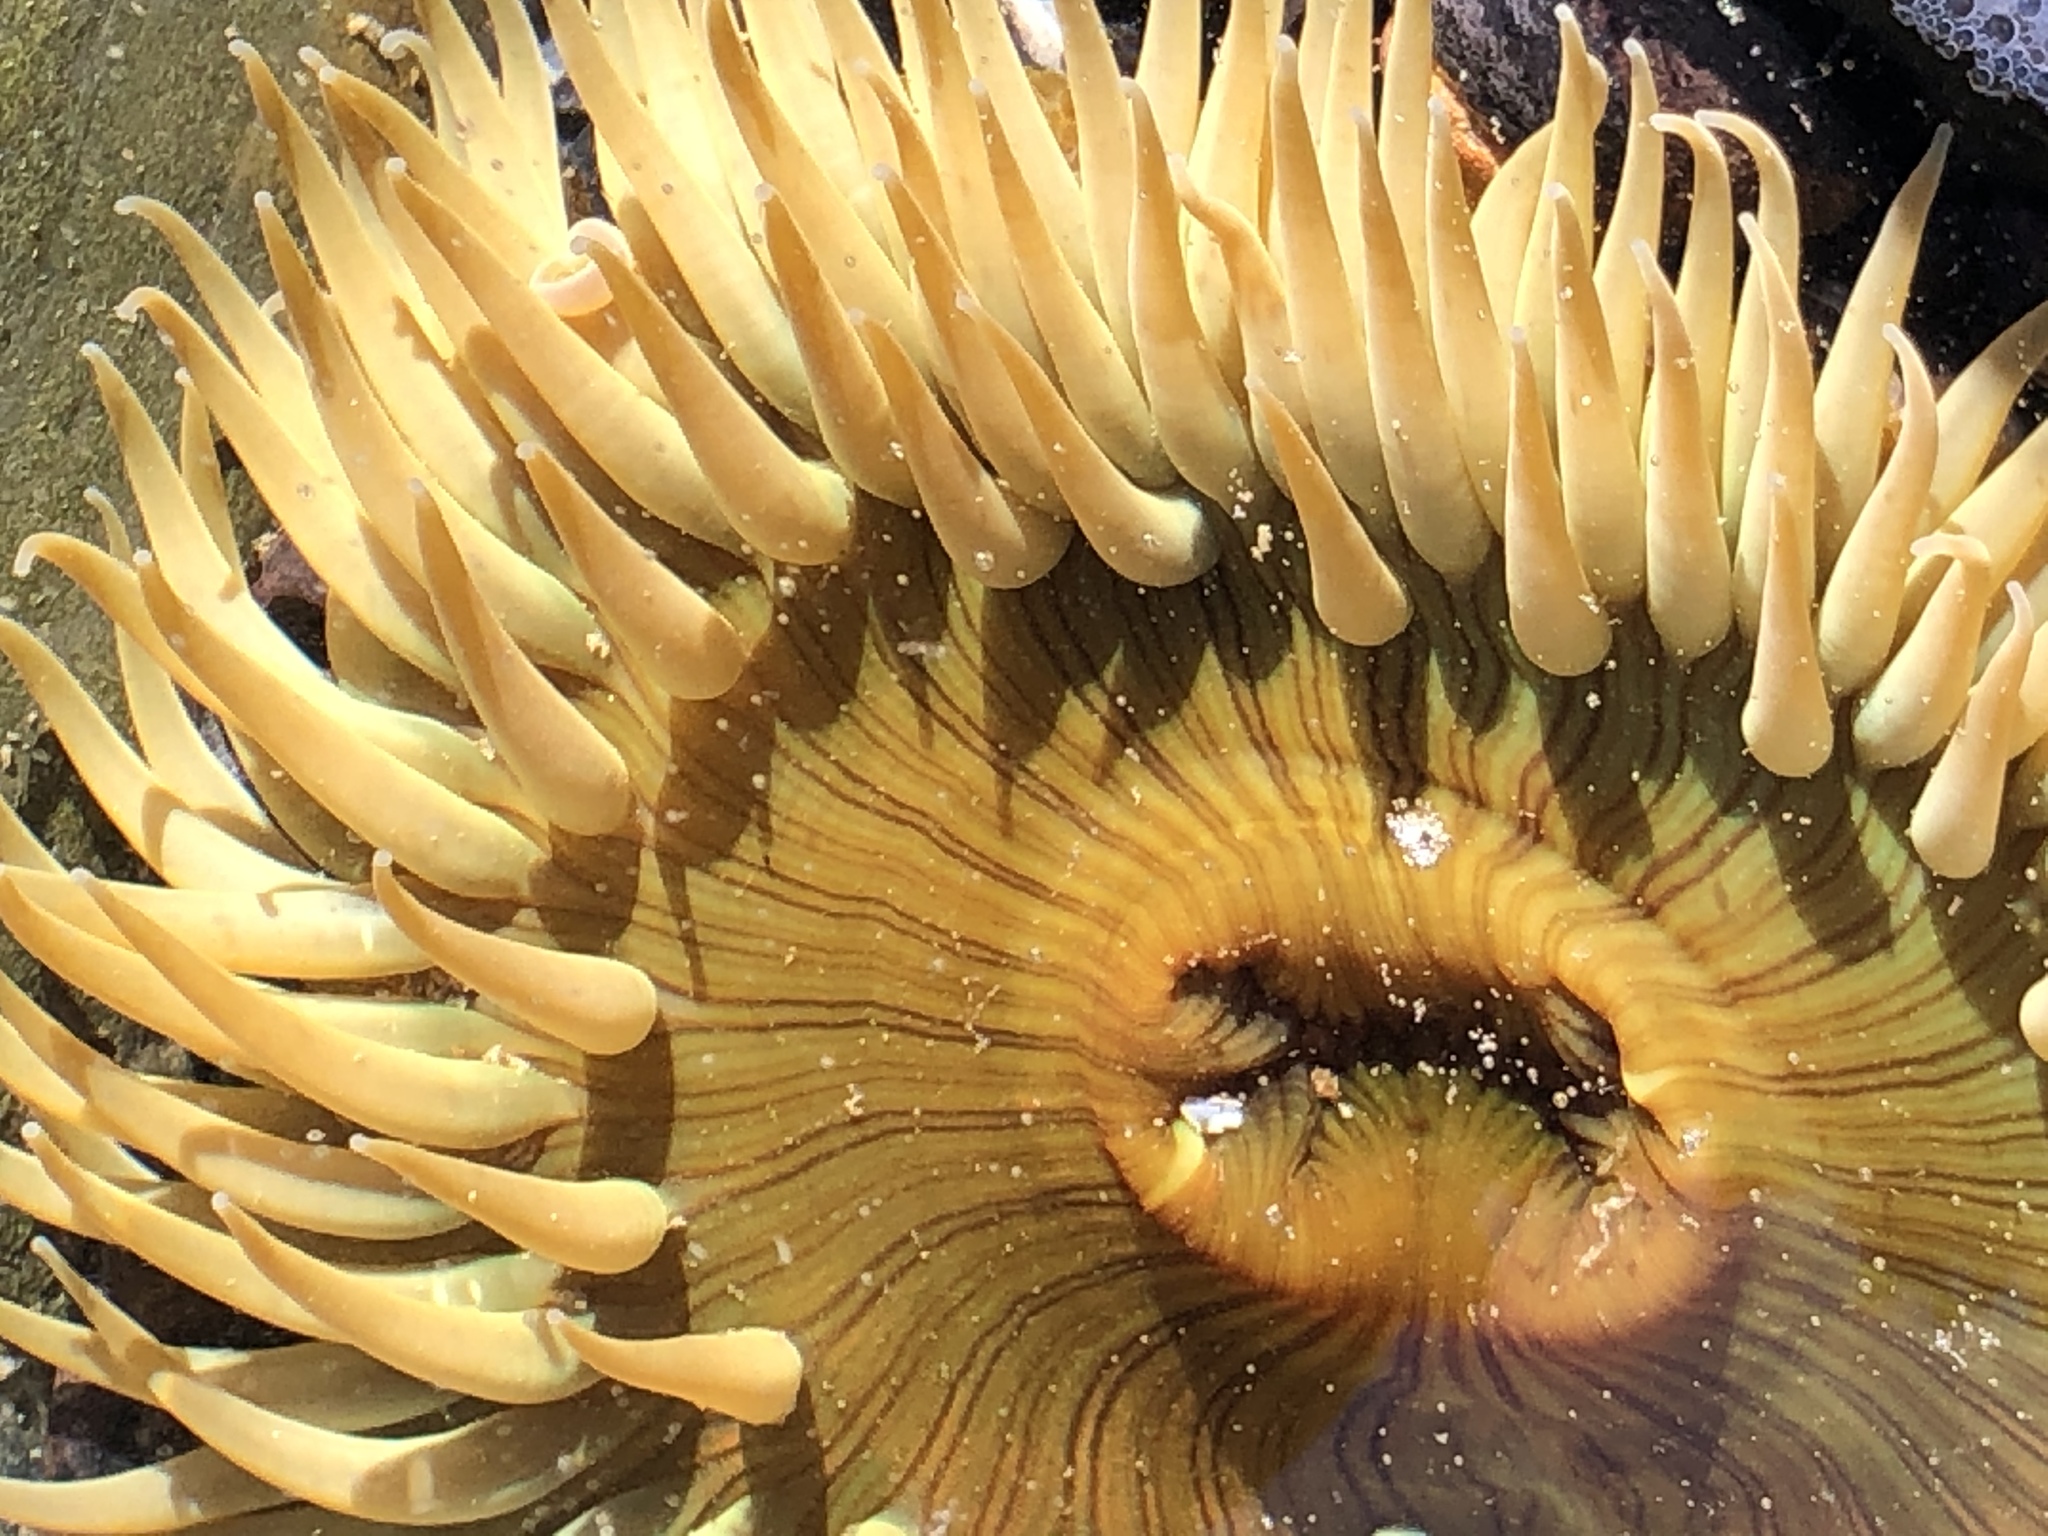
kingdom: Animalia
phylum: Cnidaria
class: Anthozoa
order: Actiniaria
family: Actiniidae
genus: Anthopleura
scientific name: Anthopleura sola
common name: Sun anemone
